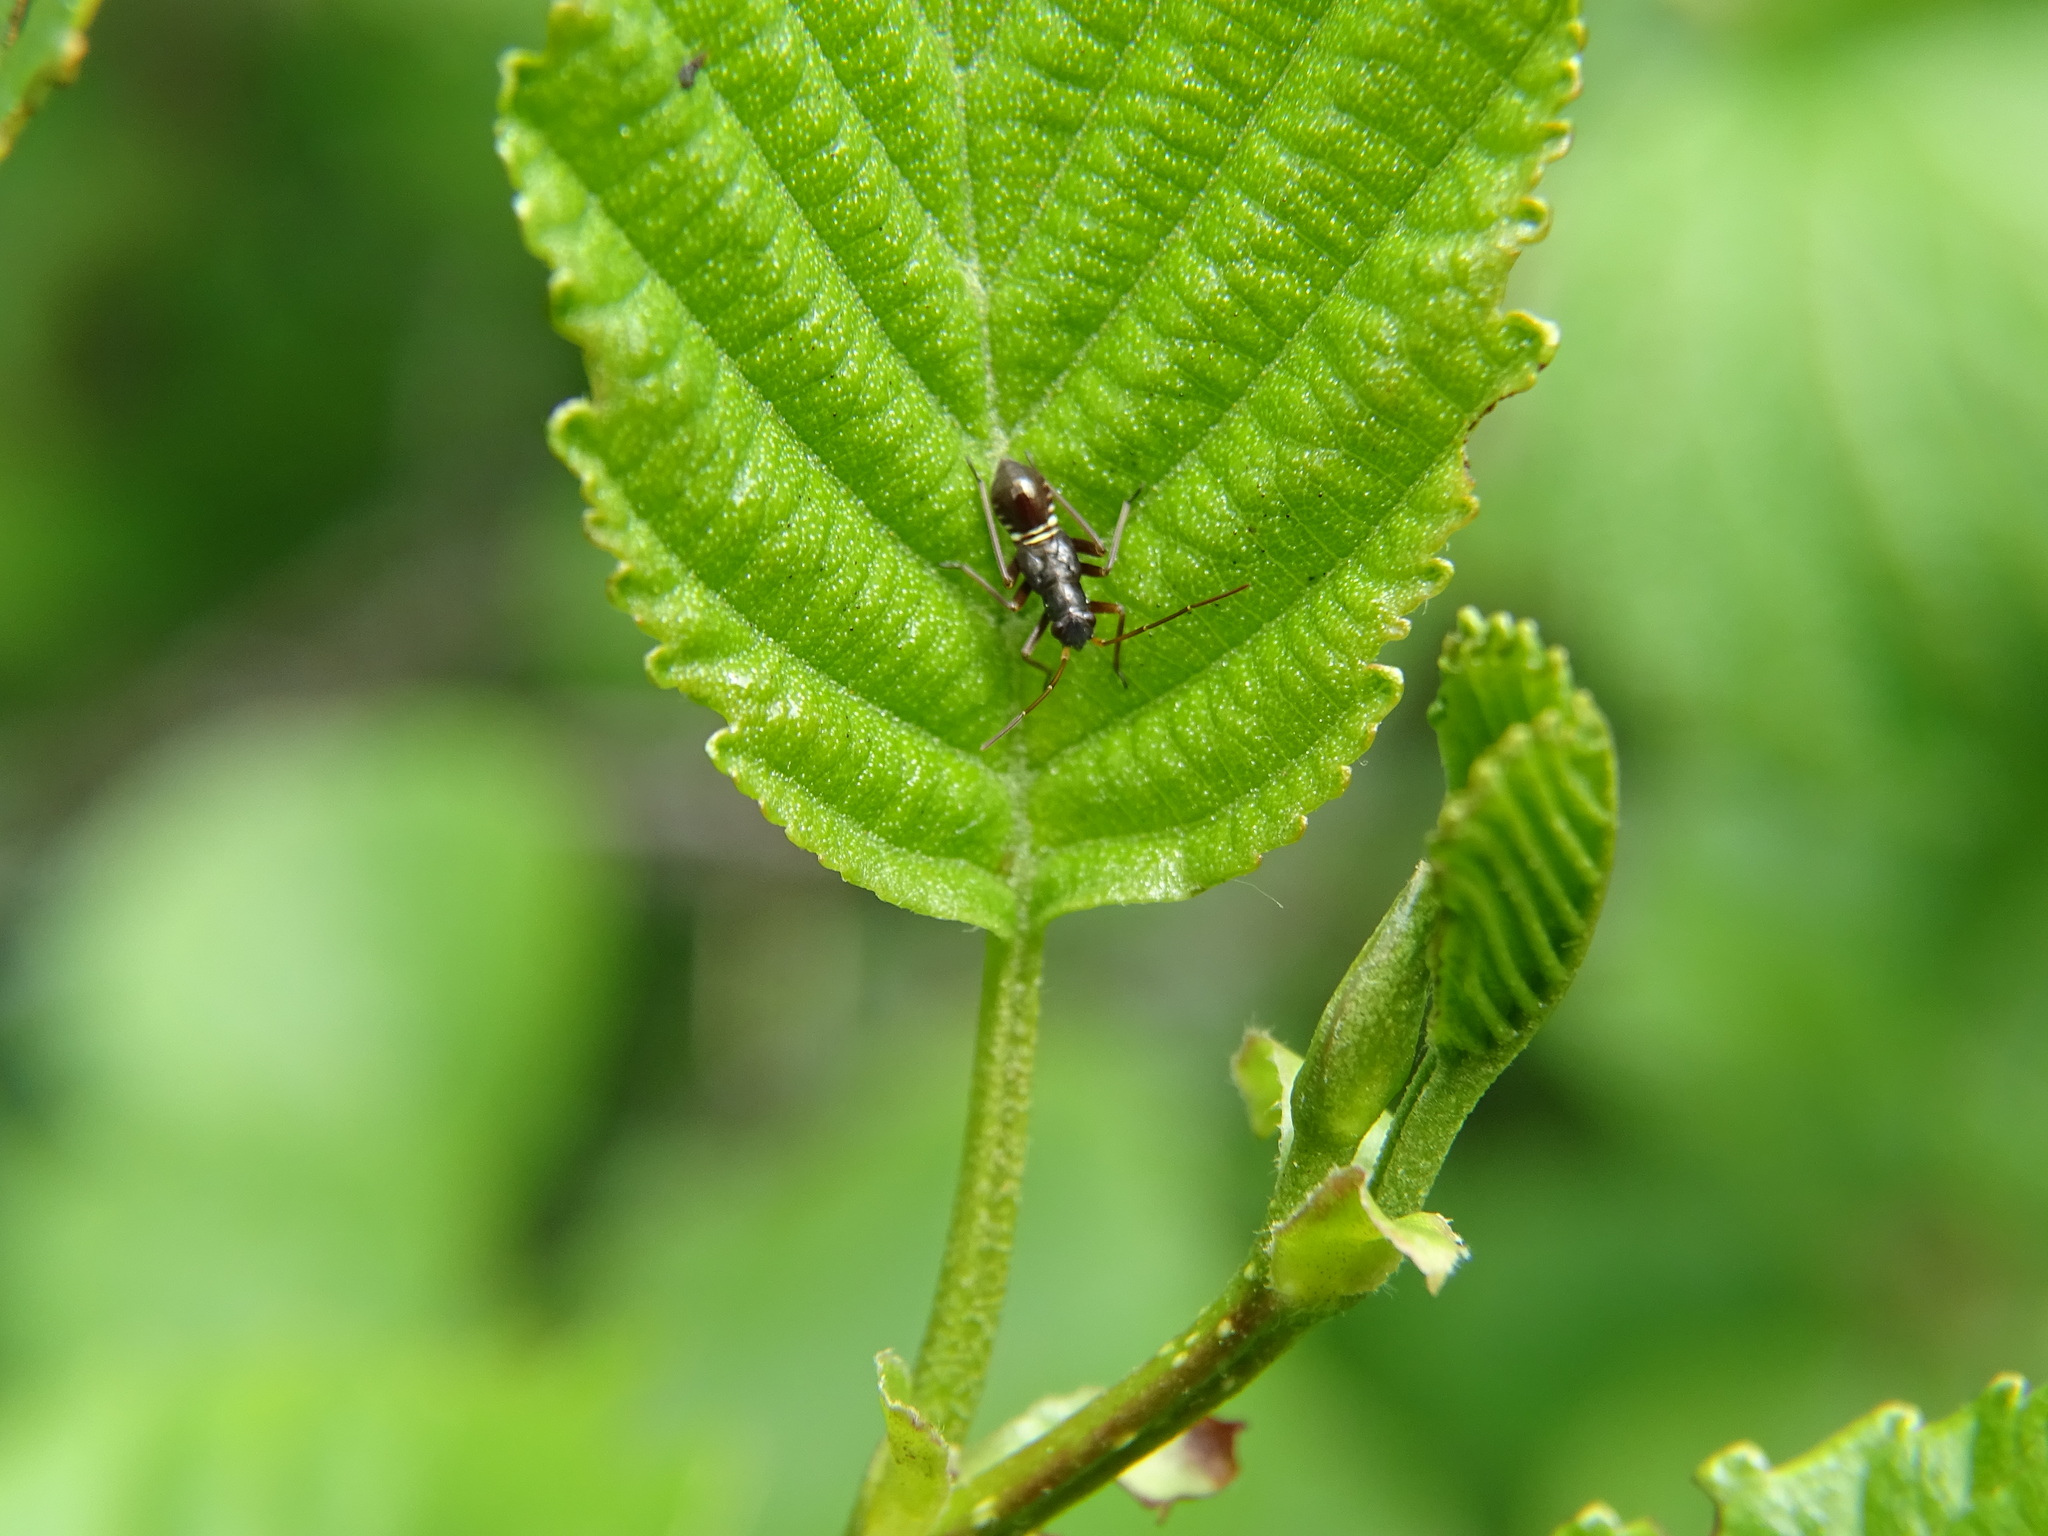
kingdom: Animalia
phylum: Arthropoda
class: Insecta
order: Hemiptera
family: Miridae
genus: Miris
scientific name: Miris striatus
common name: Fine streaked bugkin
